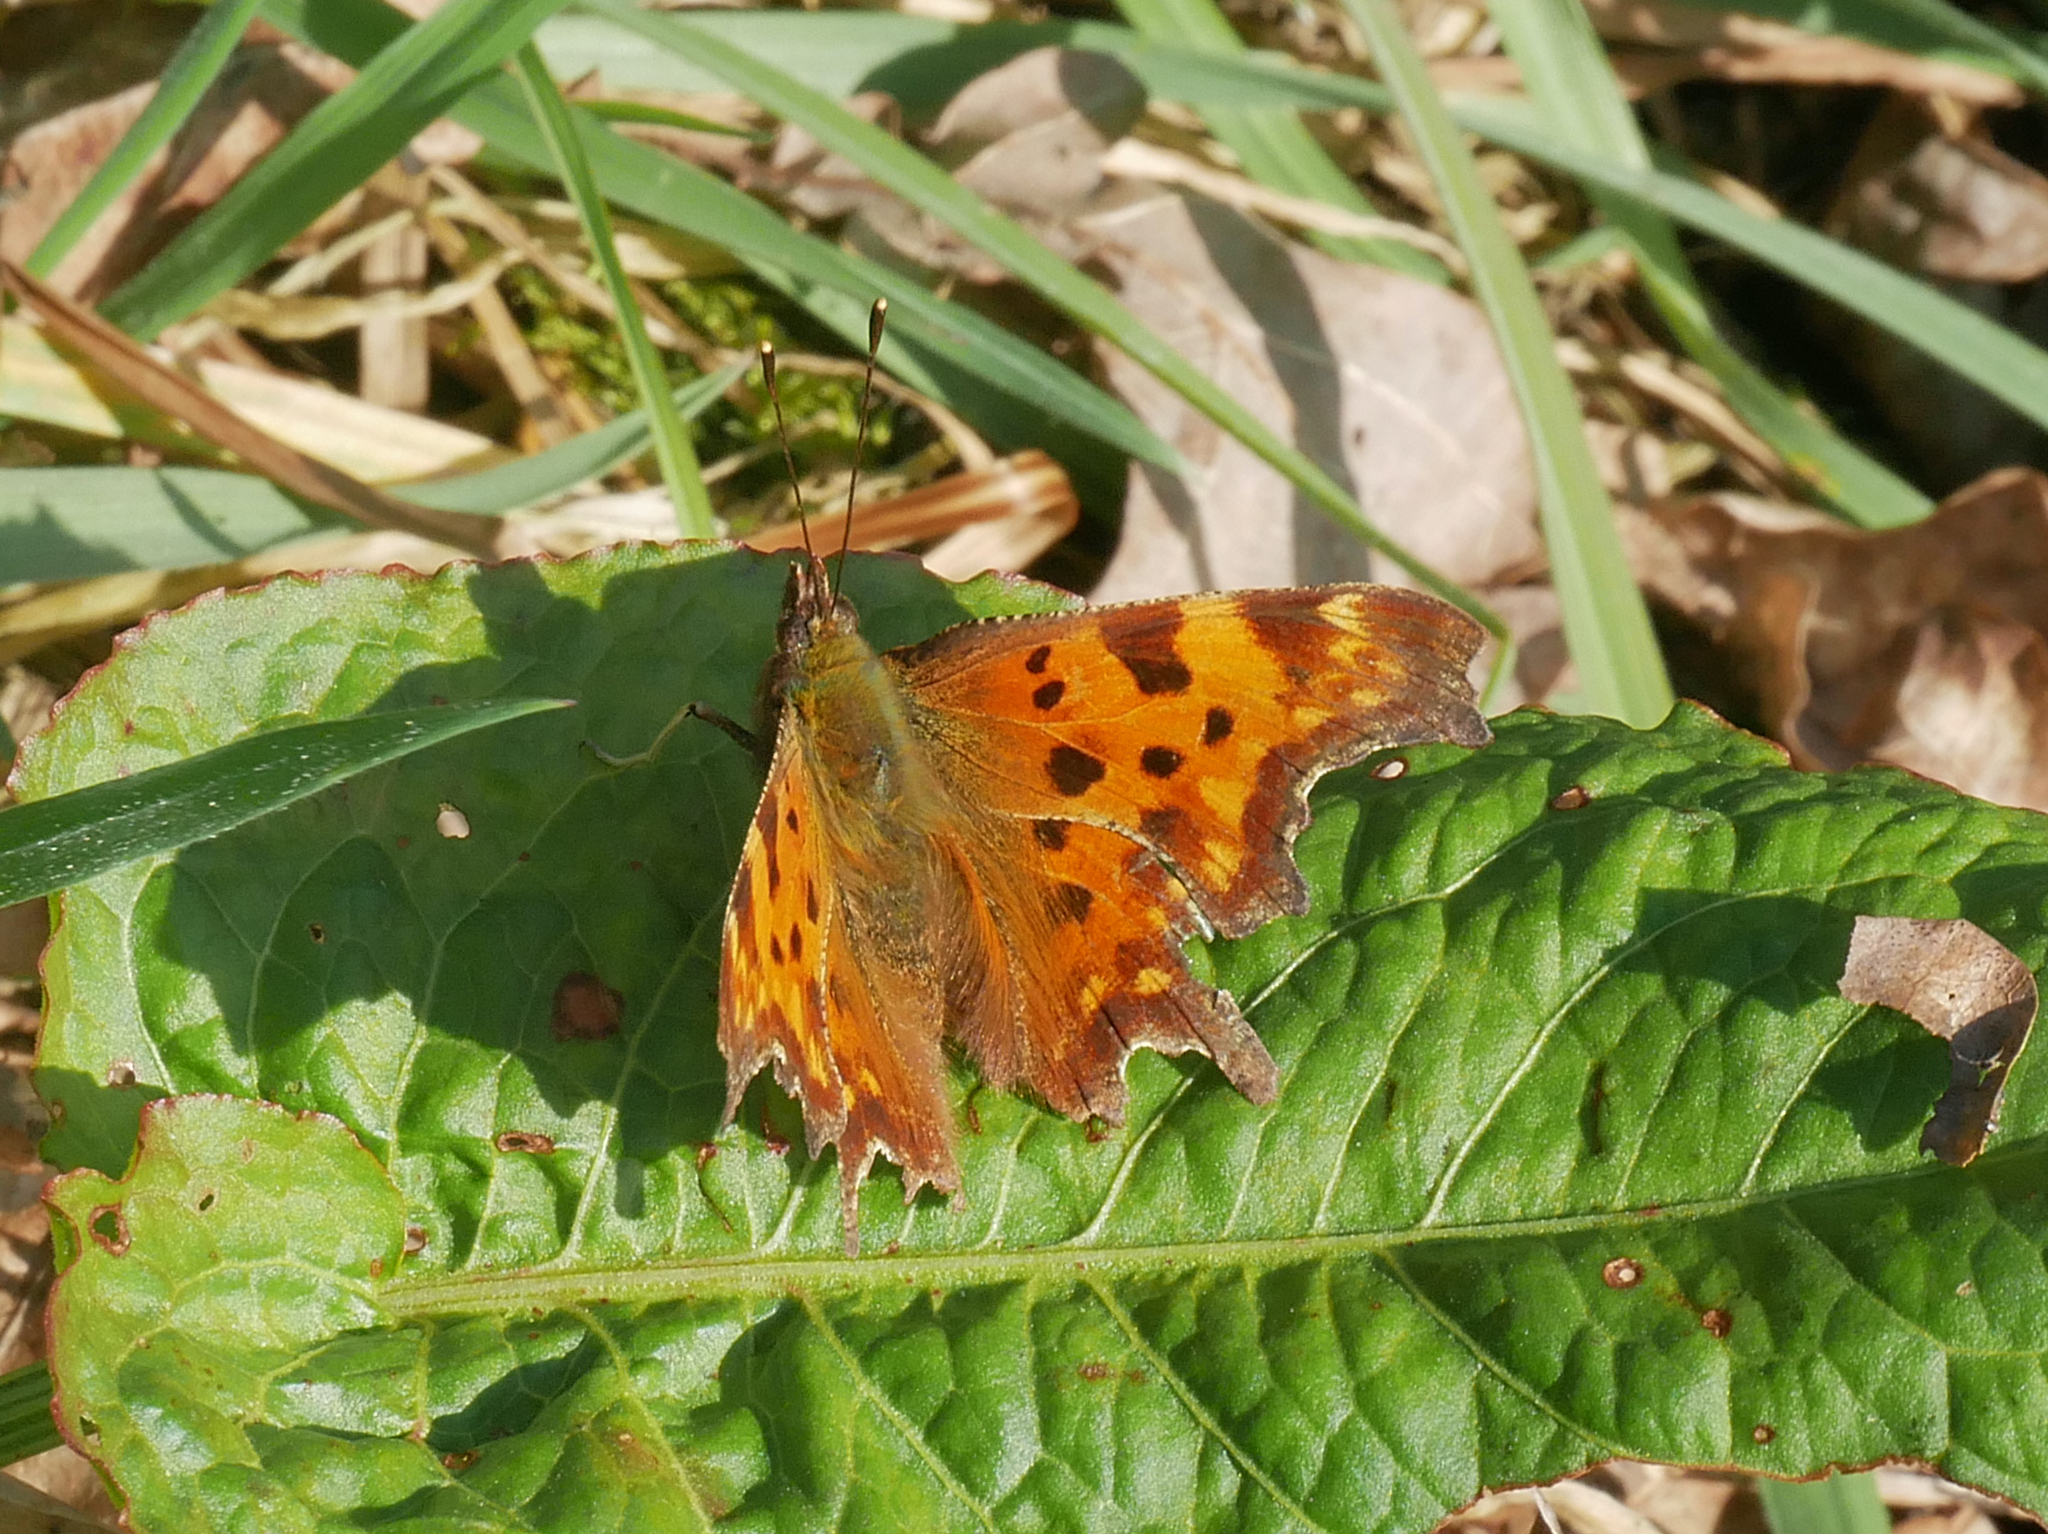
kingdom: Animalia
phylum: Arthropoda
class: Insecta
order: Lepidoptera
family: Nymphalidae
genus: Polygonia
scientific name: Polygonia c-album
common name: Comma
